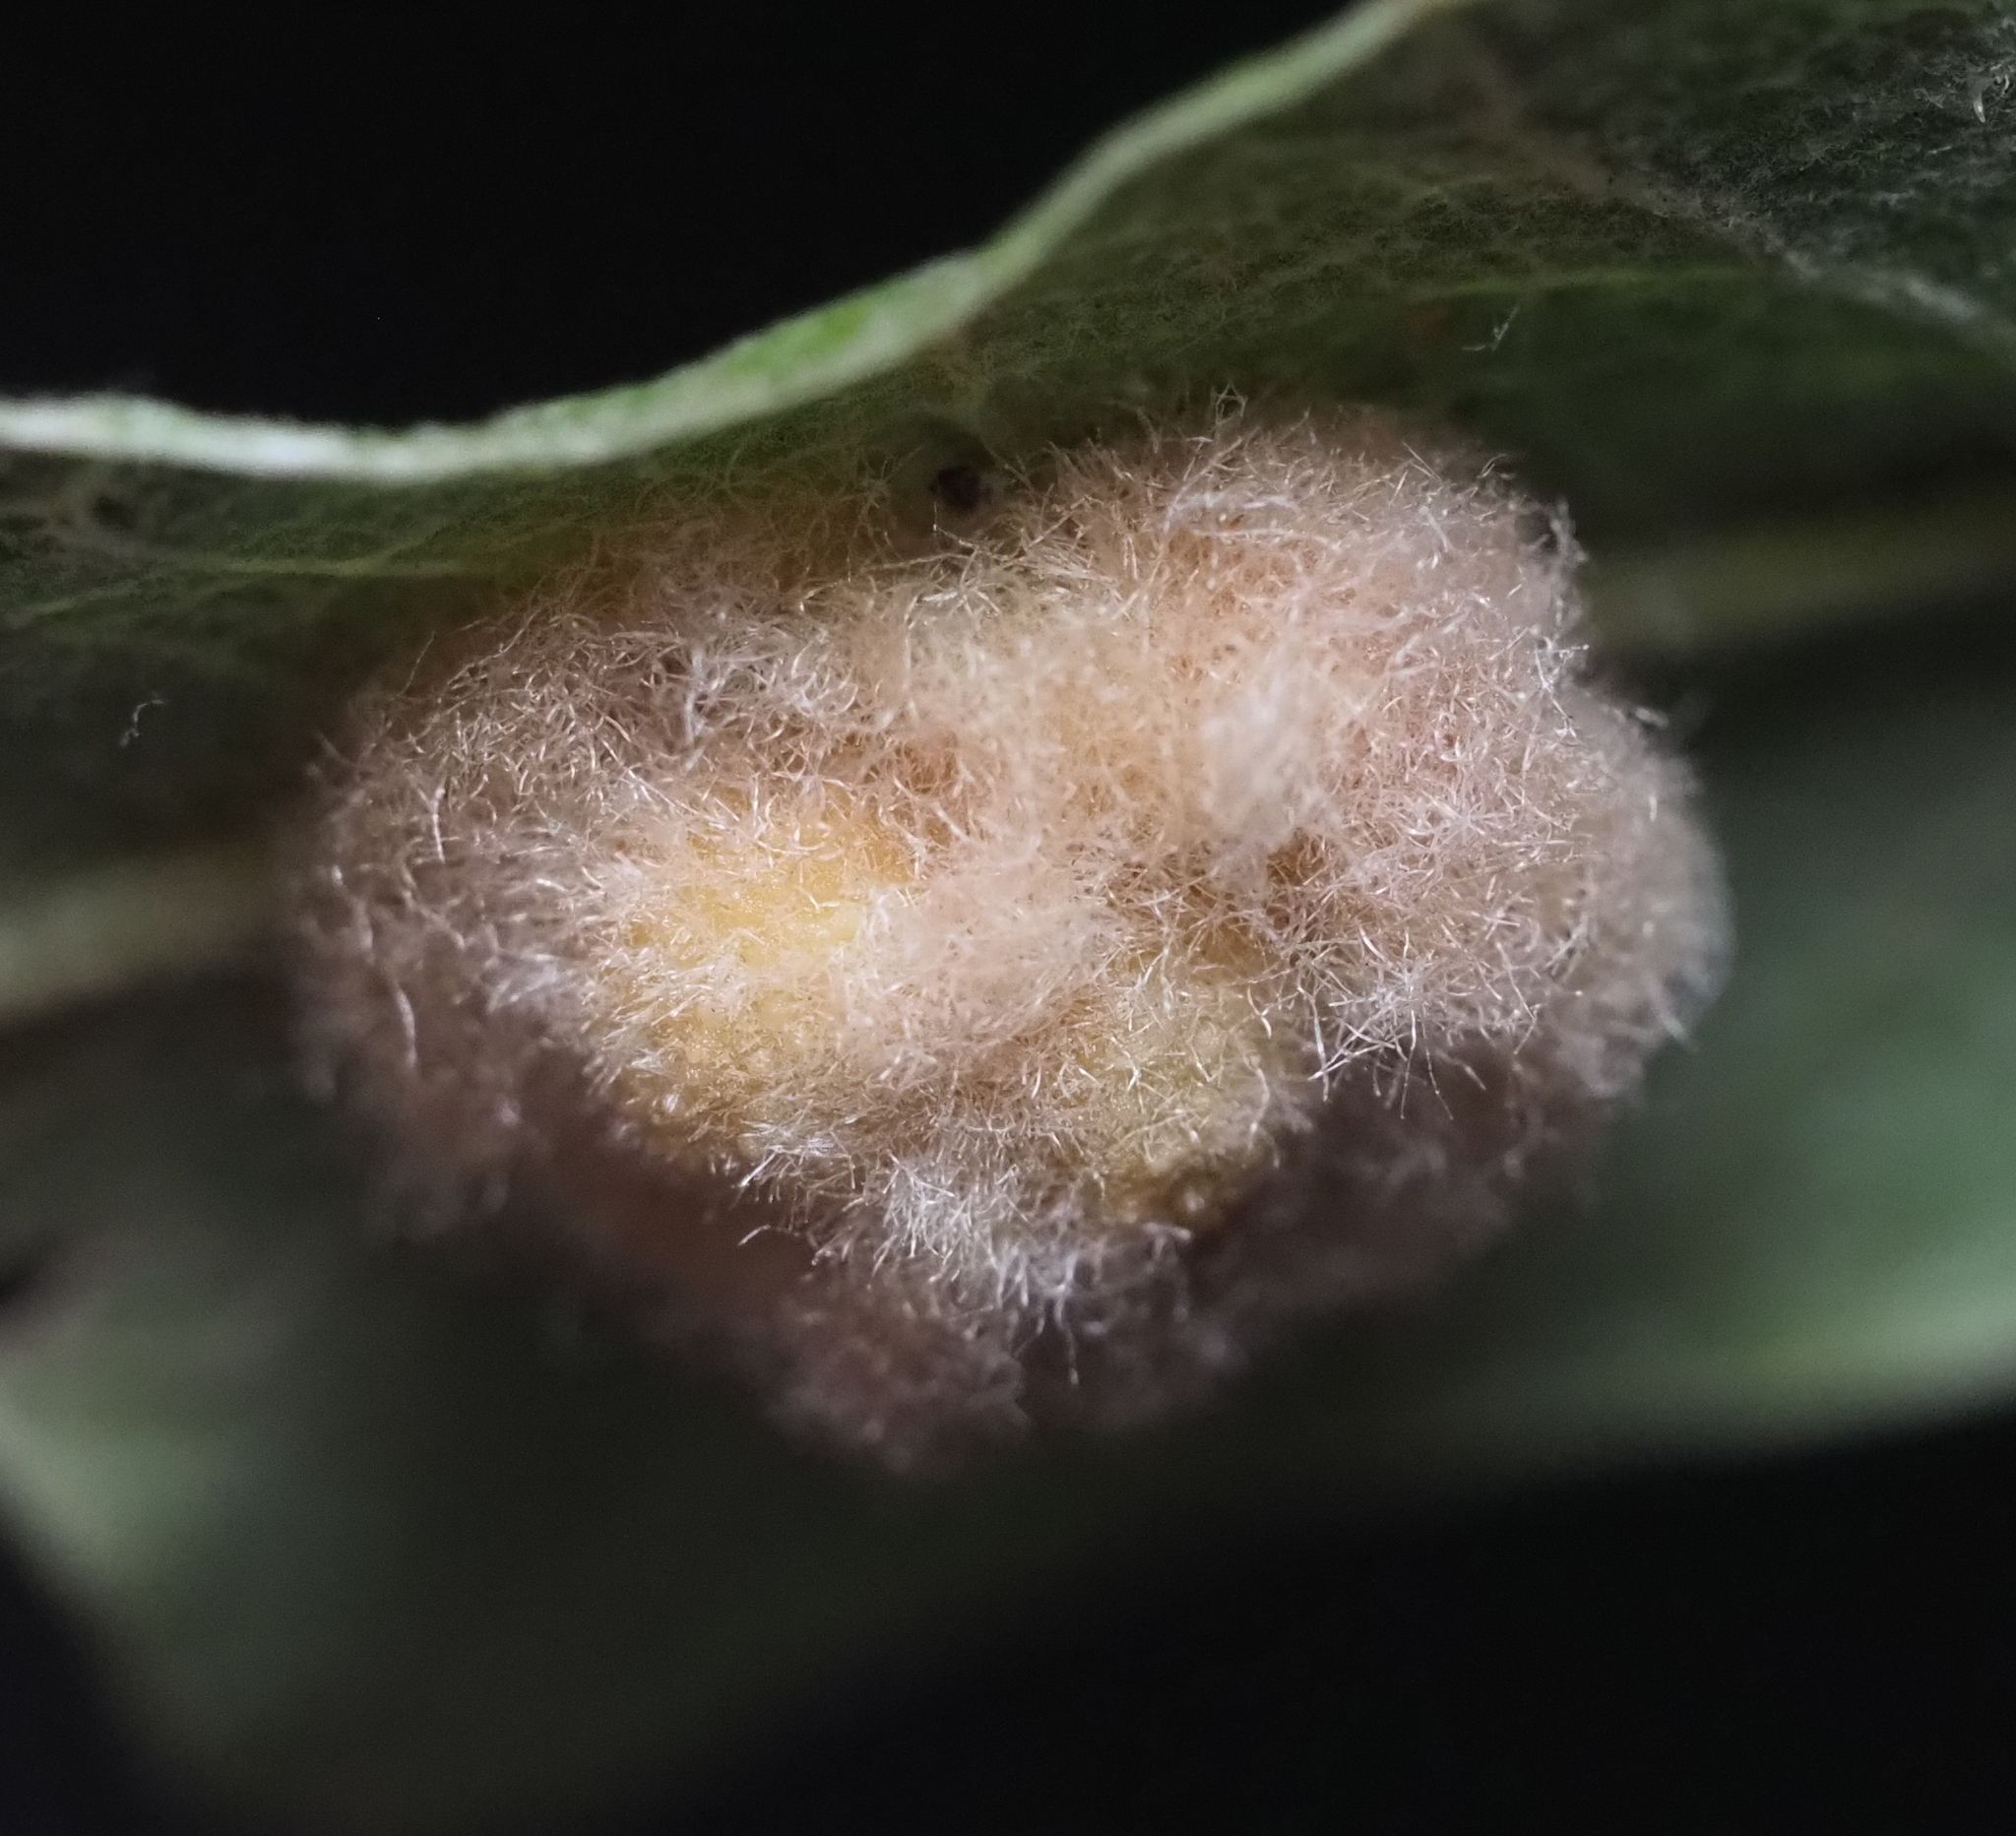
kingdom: Animalia
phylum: Arthropoda
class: Insecta
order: Hymenoptera
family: Cynipidae
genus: Andricus
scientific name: Andricus Druon pattoni
